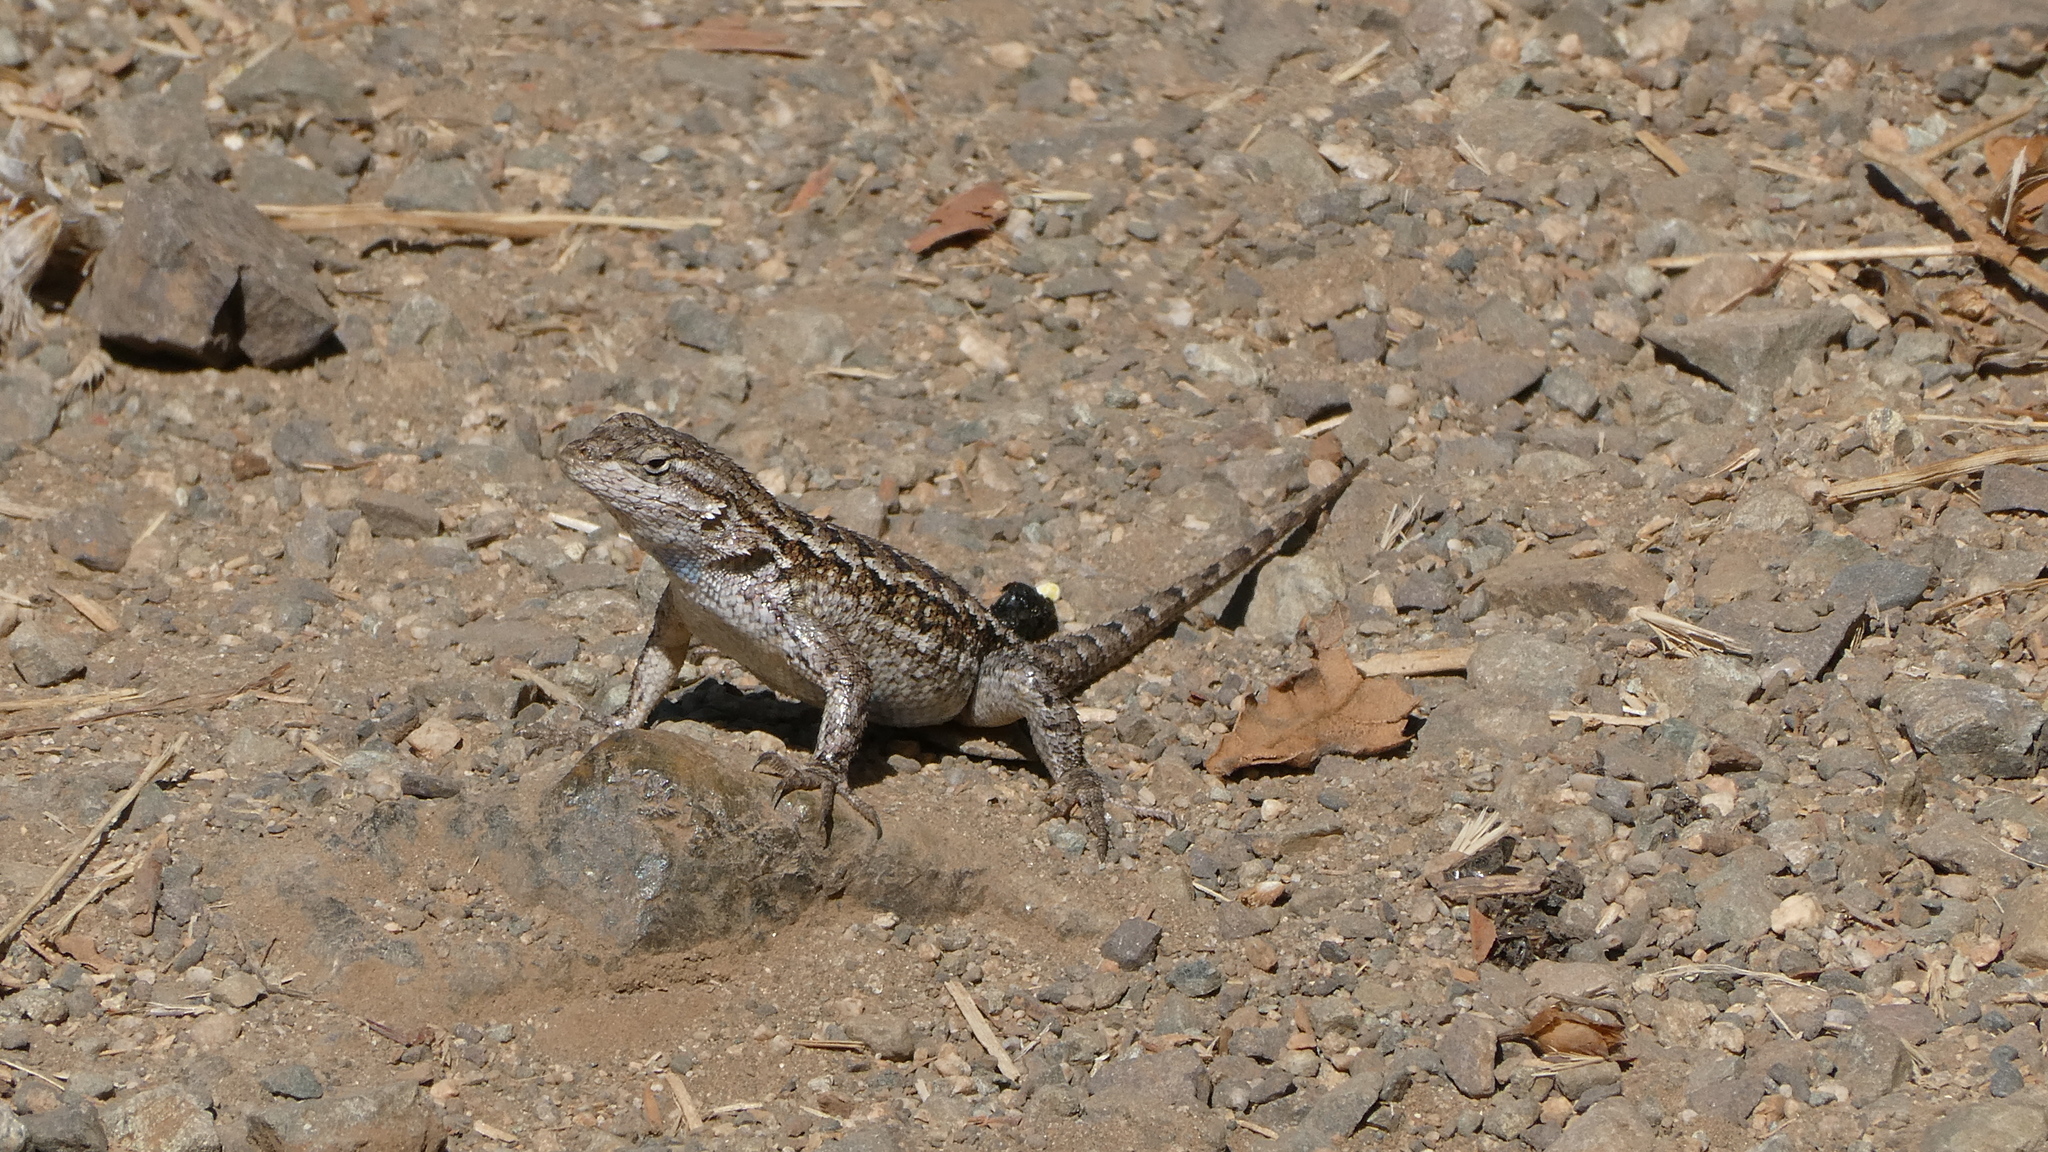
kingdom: Animalia
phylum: Chordata
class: Squamata
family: Phrynosomatidae
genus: Sceloporus
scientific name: Sceloporus occidentalis
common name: Western fence lizard
